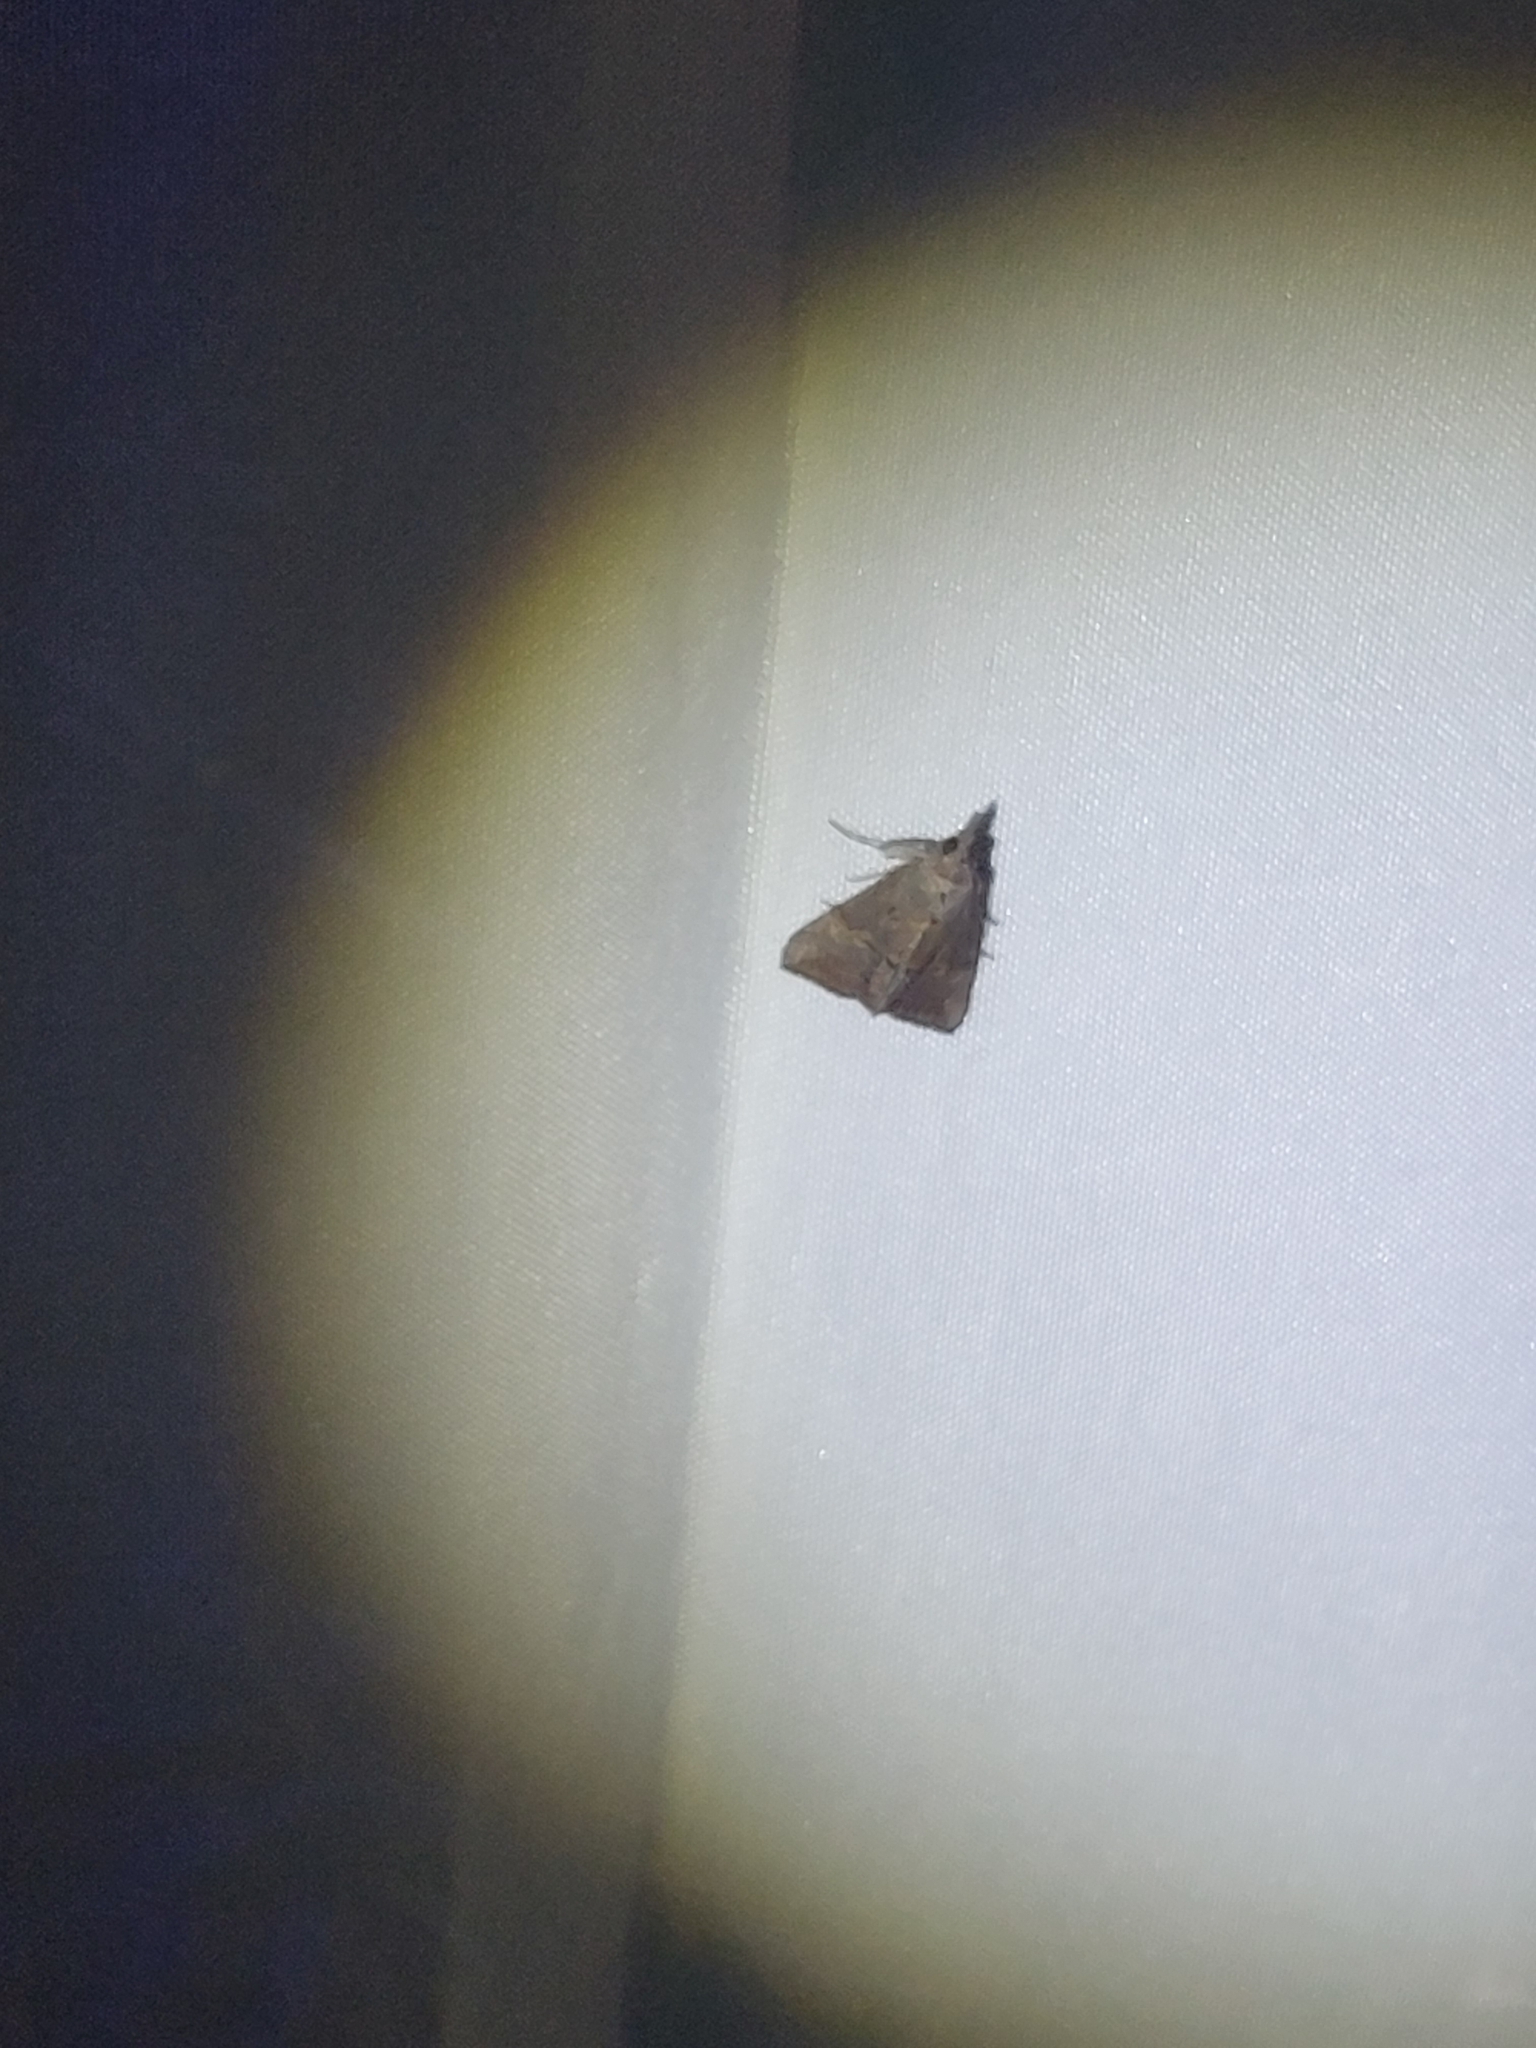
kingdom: Animalia
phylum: Arthropoda
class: Insecta
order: Lepidoptera
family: Erebidae
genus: Hypena
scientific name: Hypena scabra
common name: Green cloverworm
